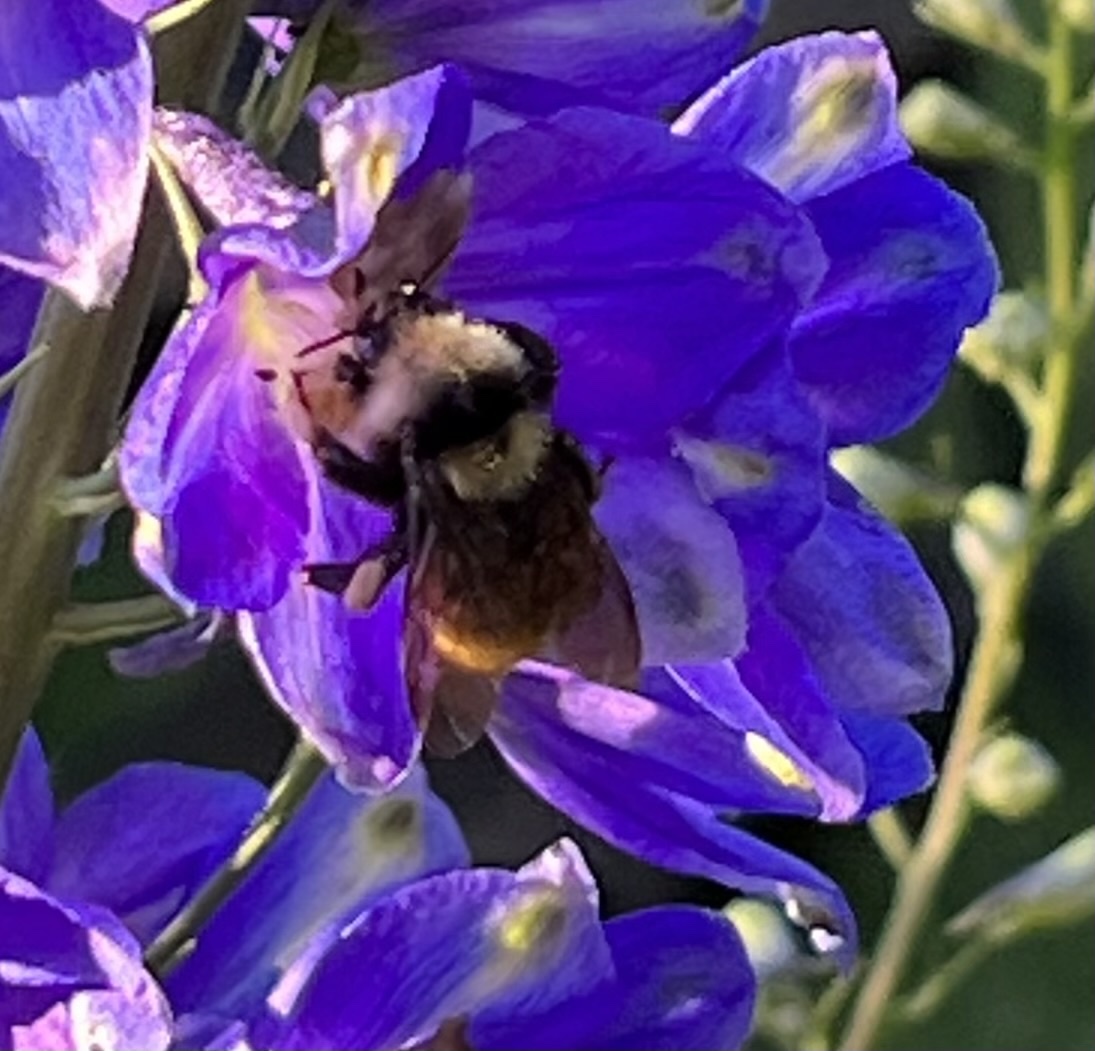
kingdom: Animalia
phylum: Arthropoda
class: Insecta
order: Hymenoptera
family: Apidae
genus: Bombus
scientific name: Bombus appositus
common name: White-shouldered bumble bee
